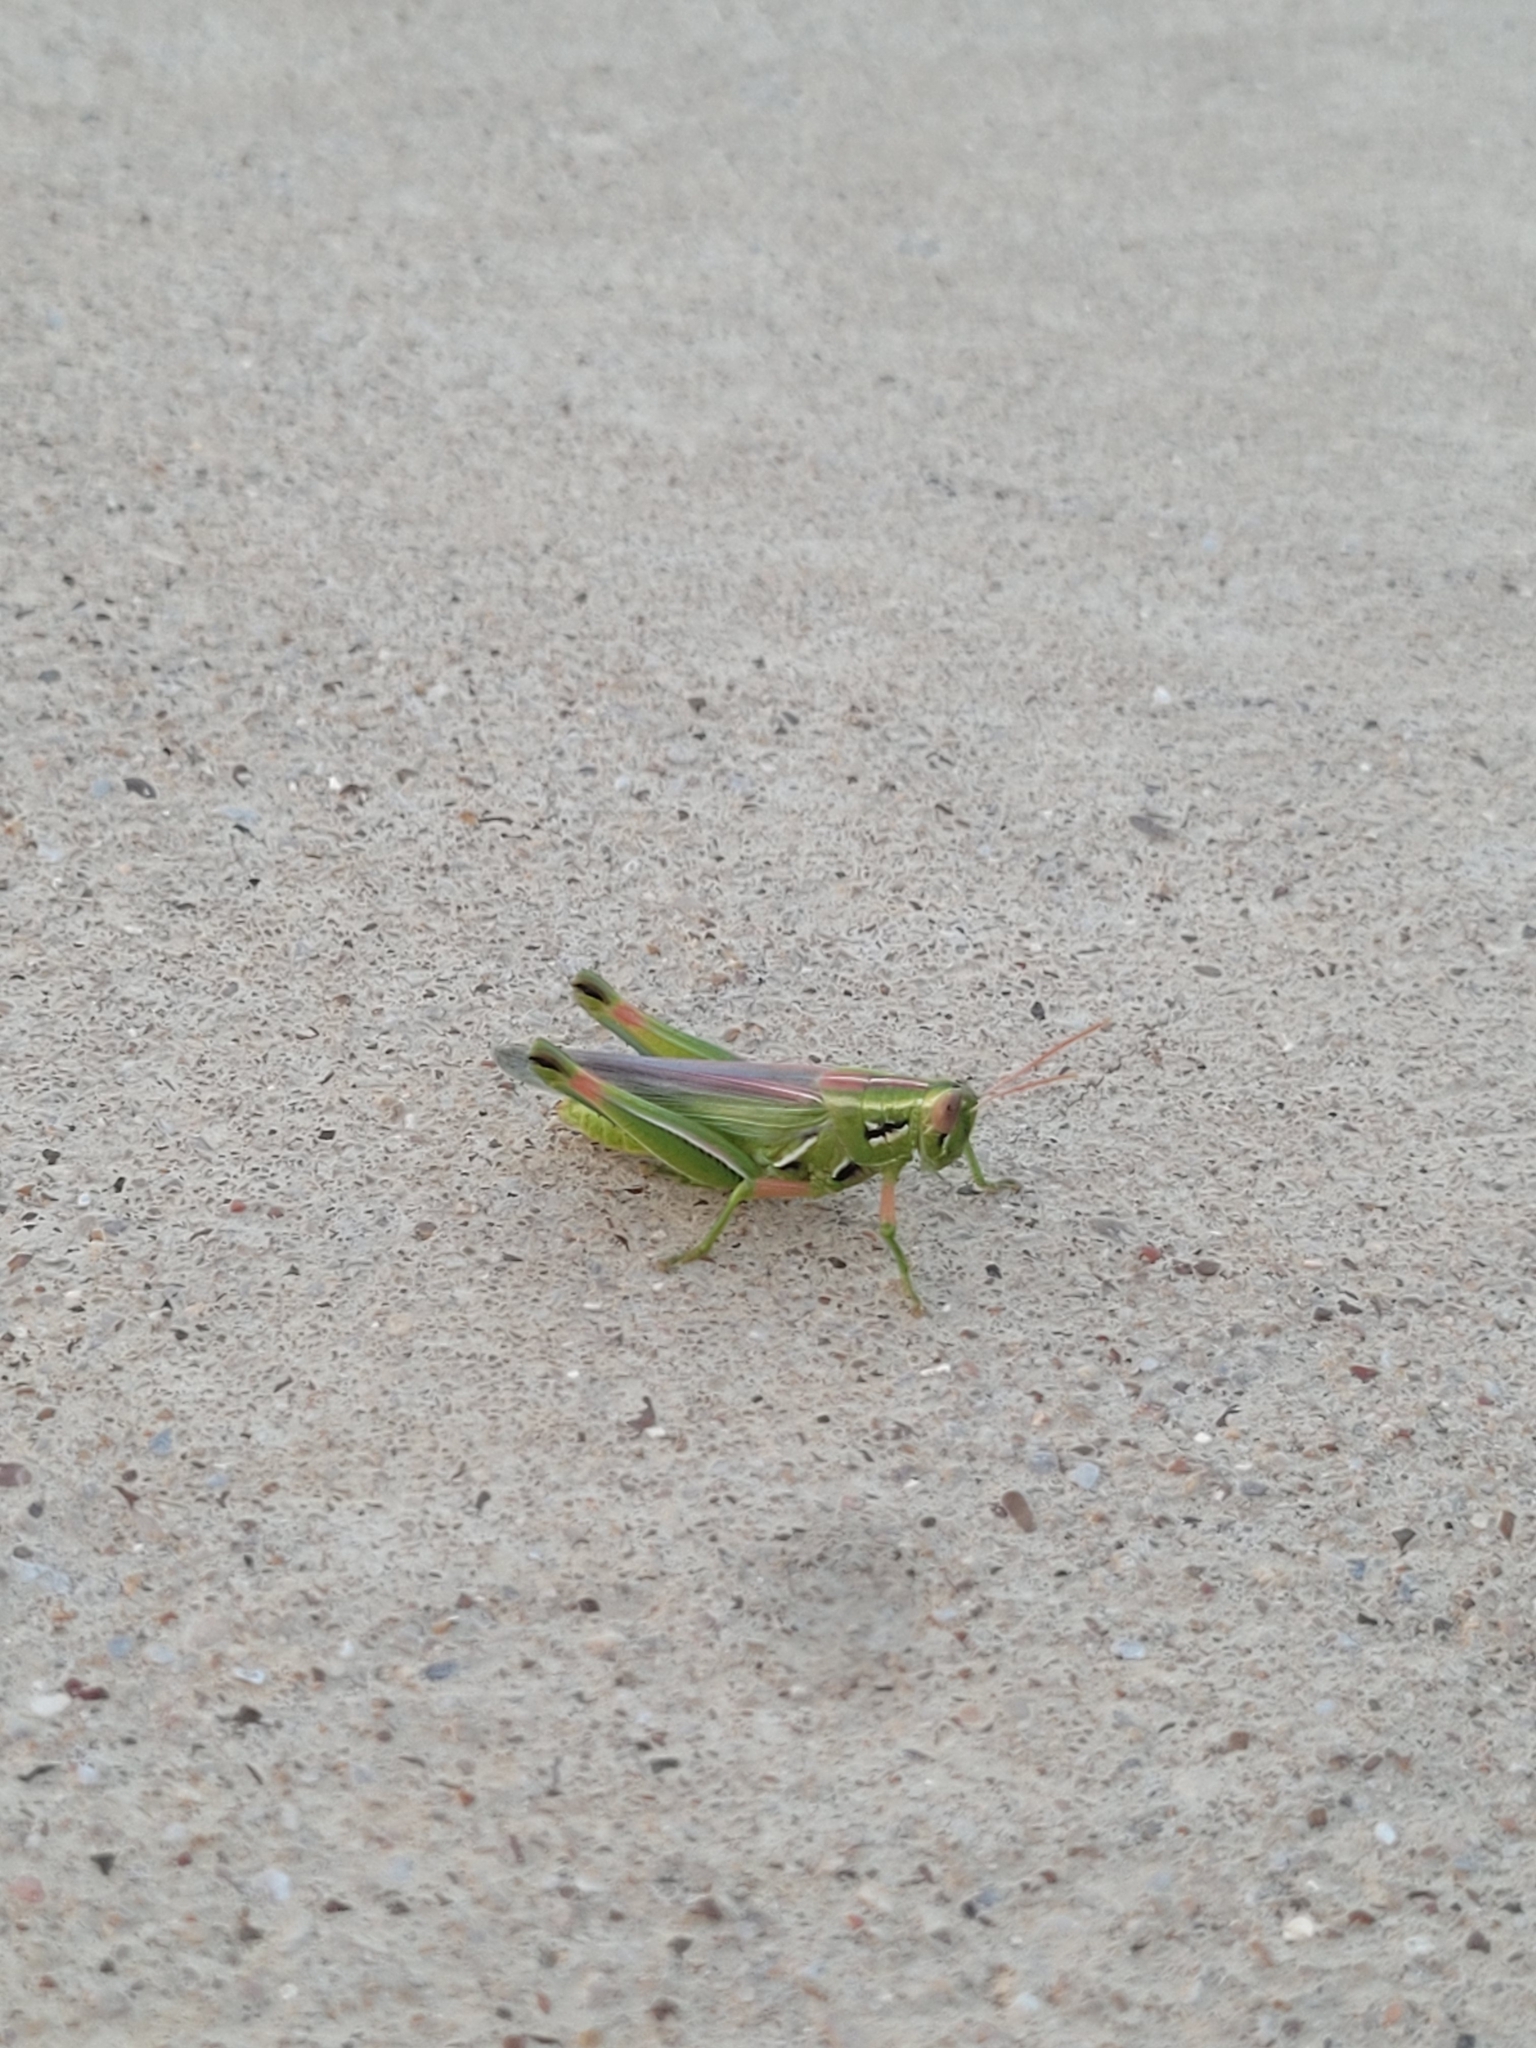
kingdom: Animalia
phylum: Arthropoda
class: Insecta
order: Orthoptera
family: Acrididae
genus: Hesperotettix
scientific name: Hesperotettix viridis
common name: Meadow purple-striped grasshopper
